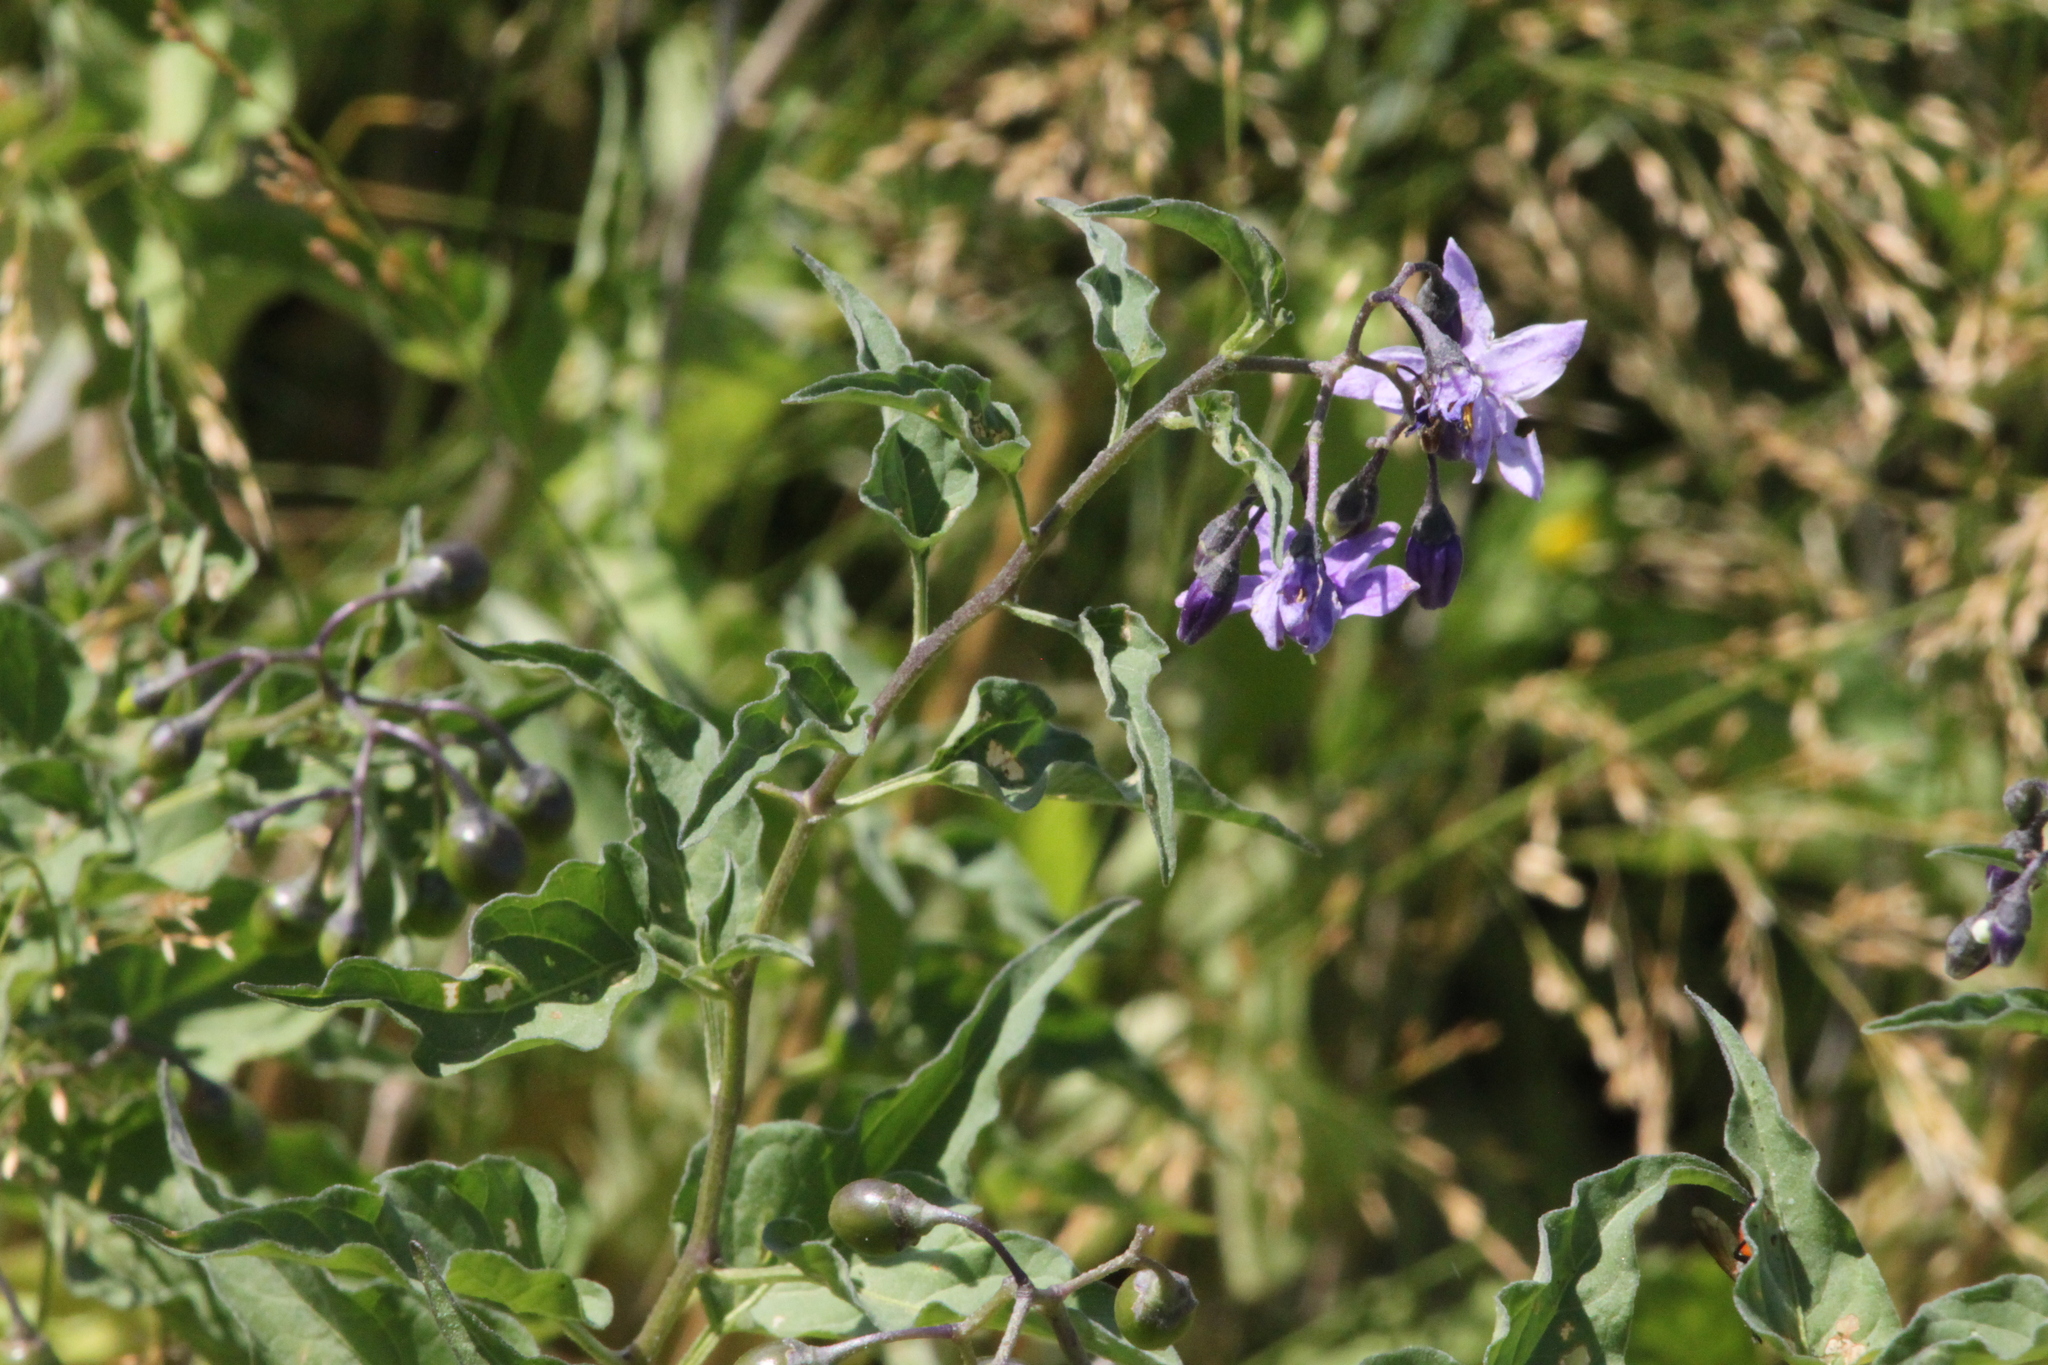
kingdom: Plantae
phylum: Tracheophyta
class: Magnoliopsida
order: Solanales
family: Solanaceae
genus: Solanum
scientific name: Solanum dulcamara
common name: Climbing nightshade
